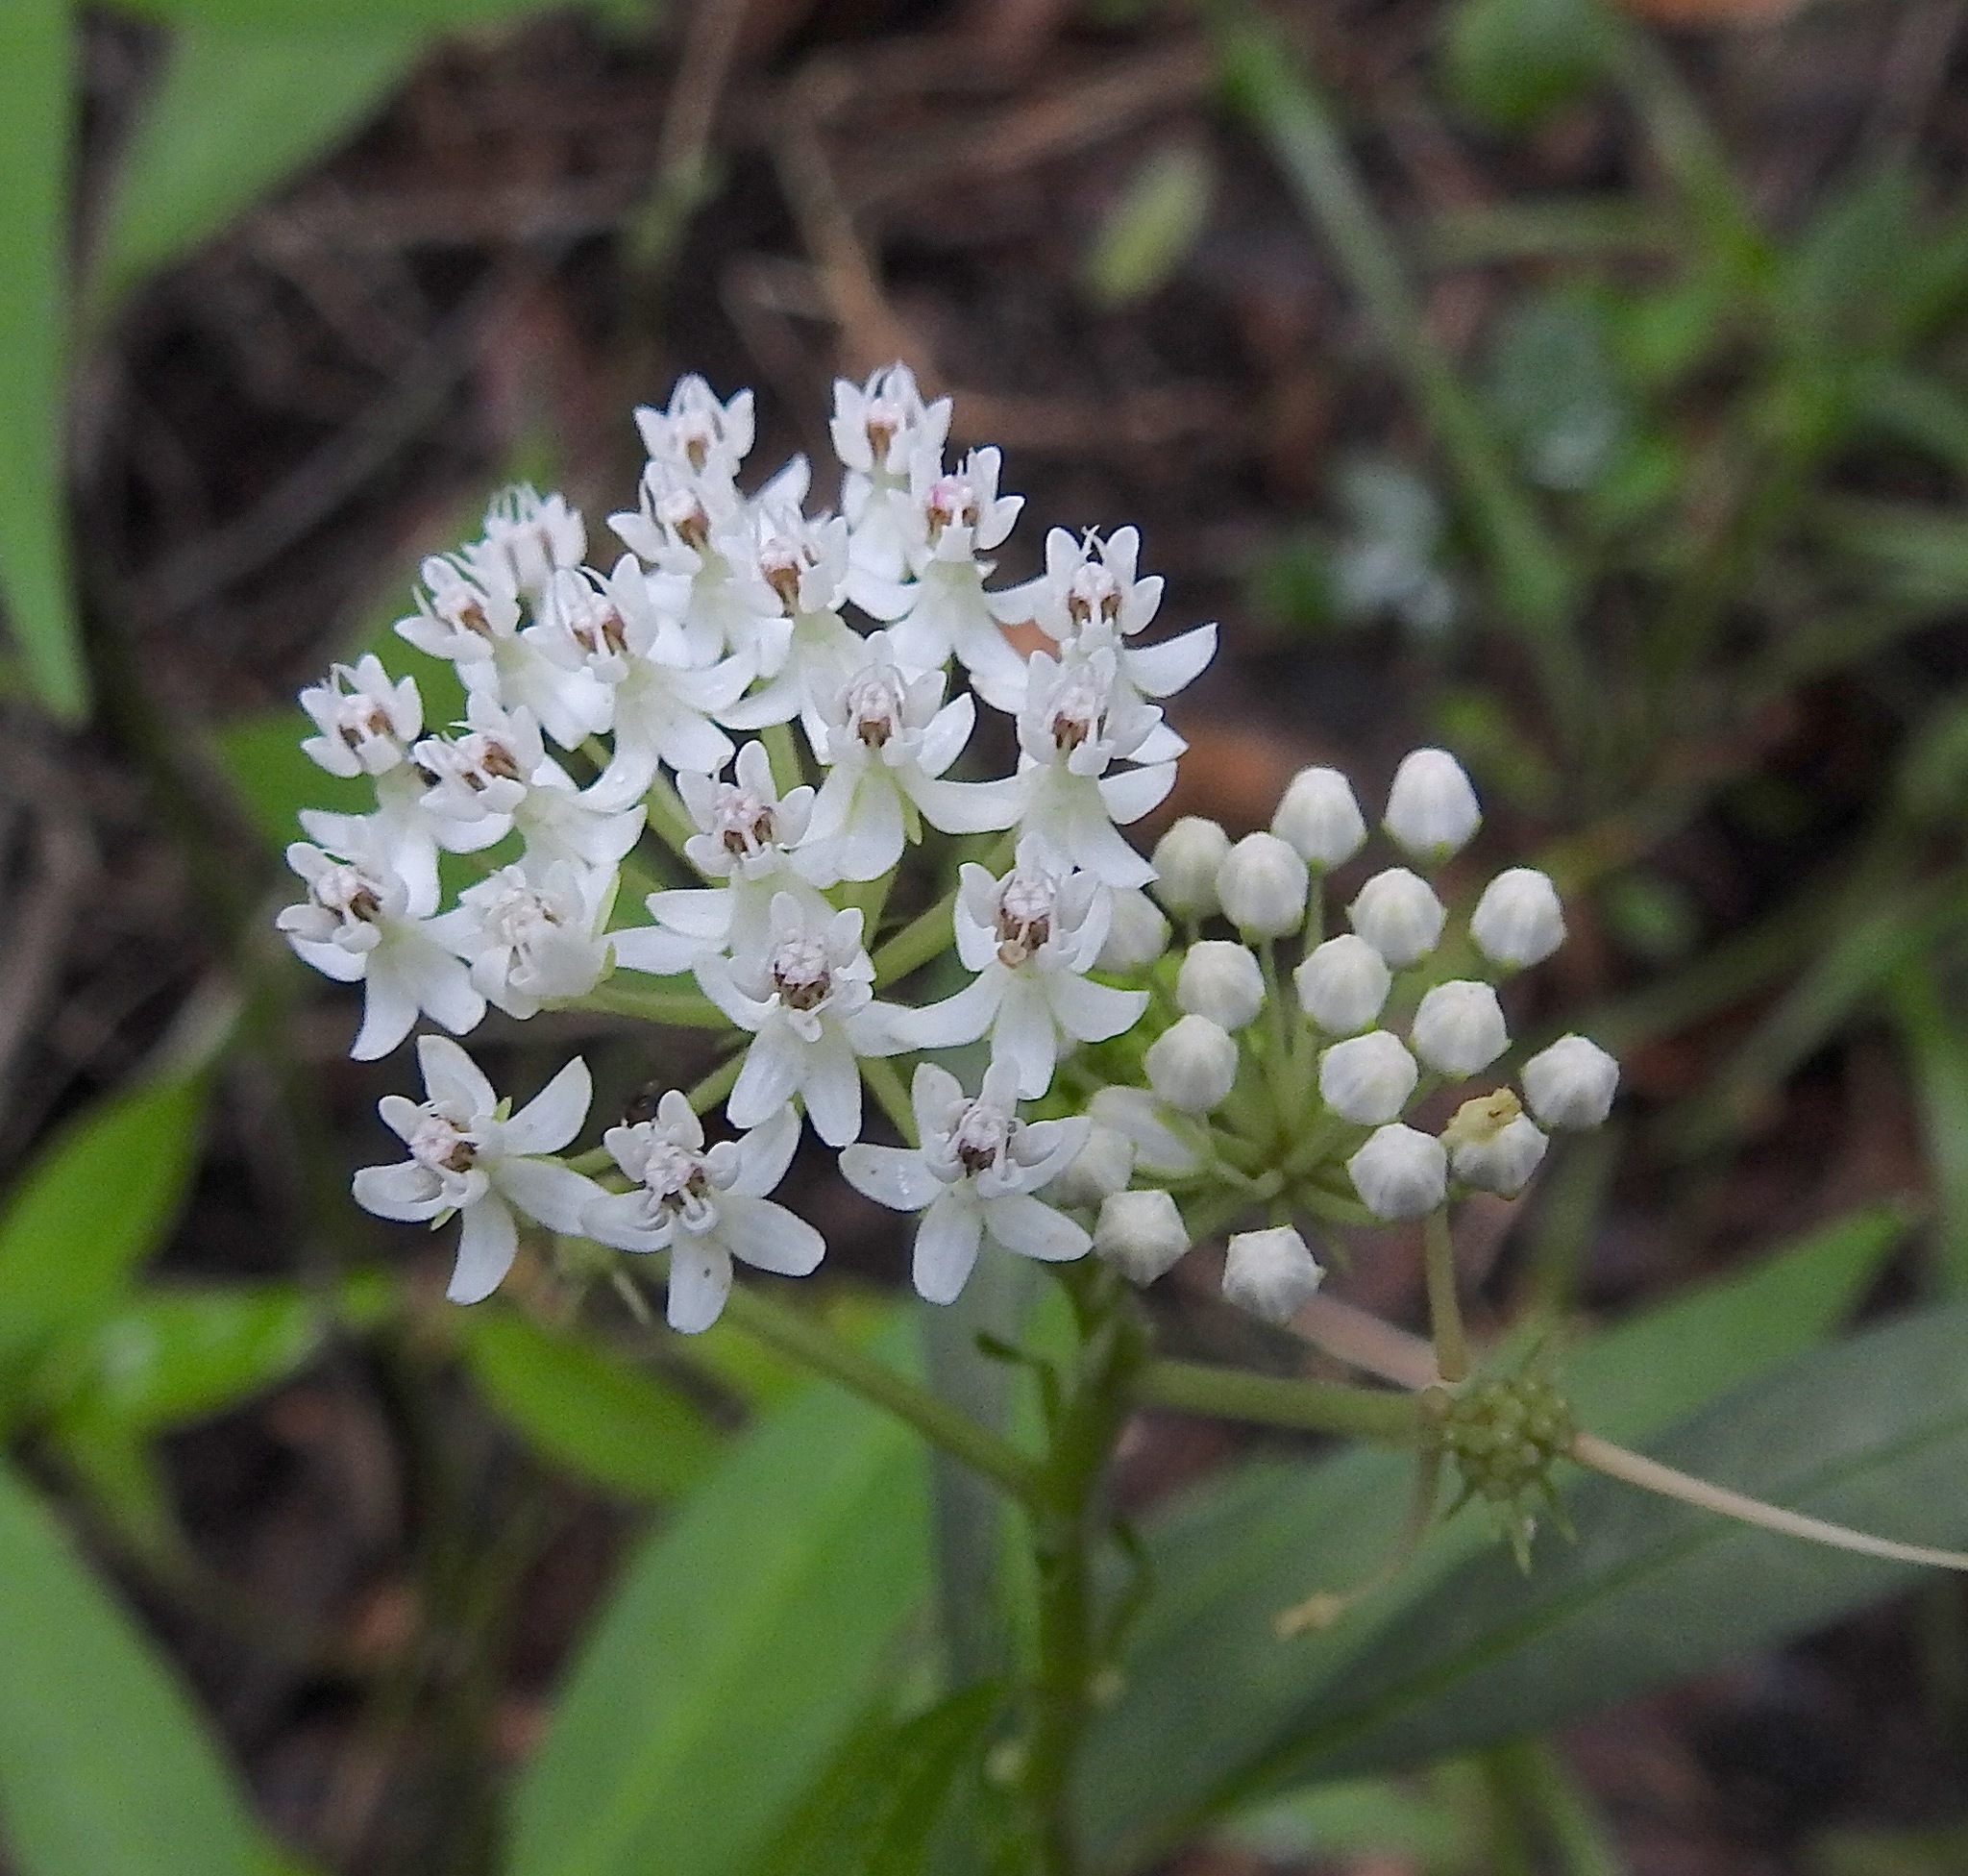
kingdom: Plantae
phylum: Tracheophyta
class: Magnoliopsida
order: Gentianales
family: Apocynaceae
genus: Asclepias
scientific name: Asclepias perennis
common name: Smooth-seed milkweed
